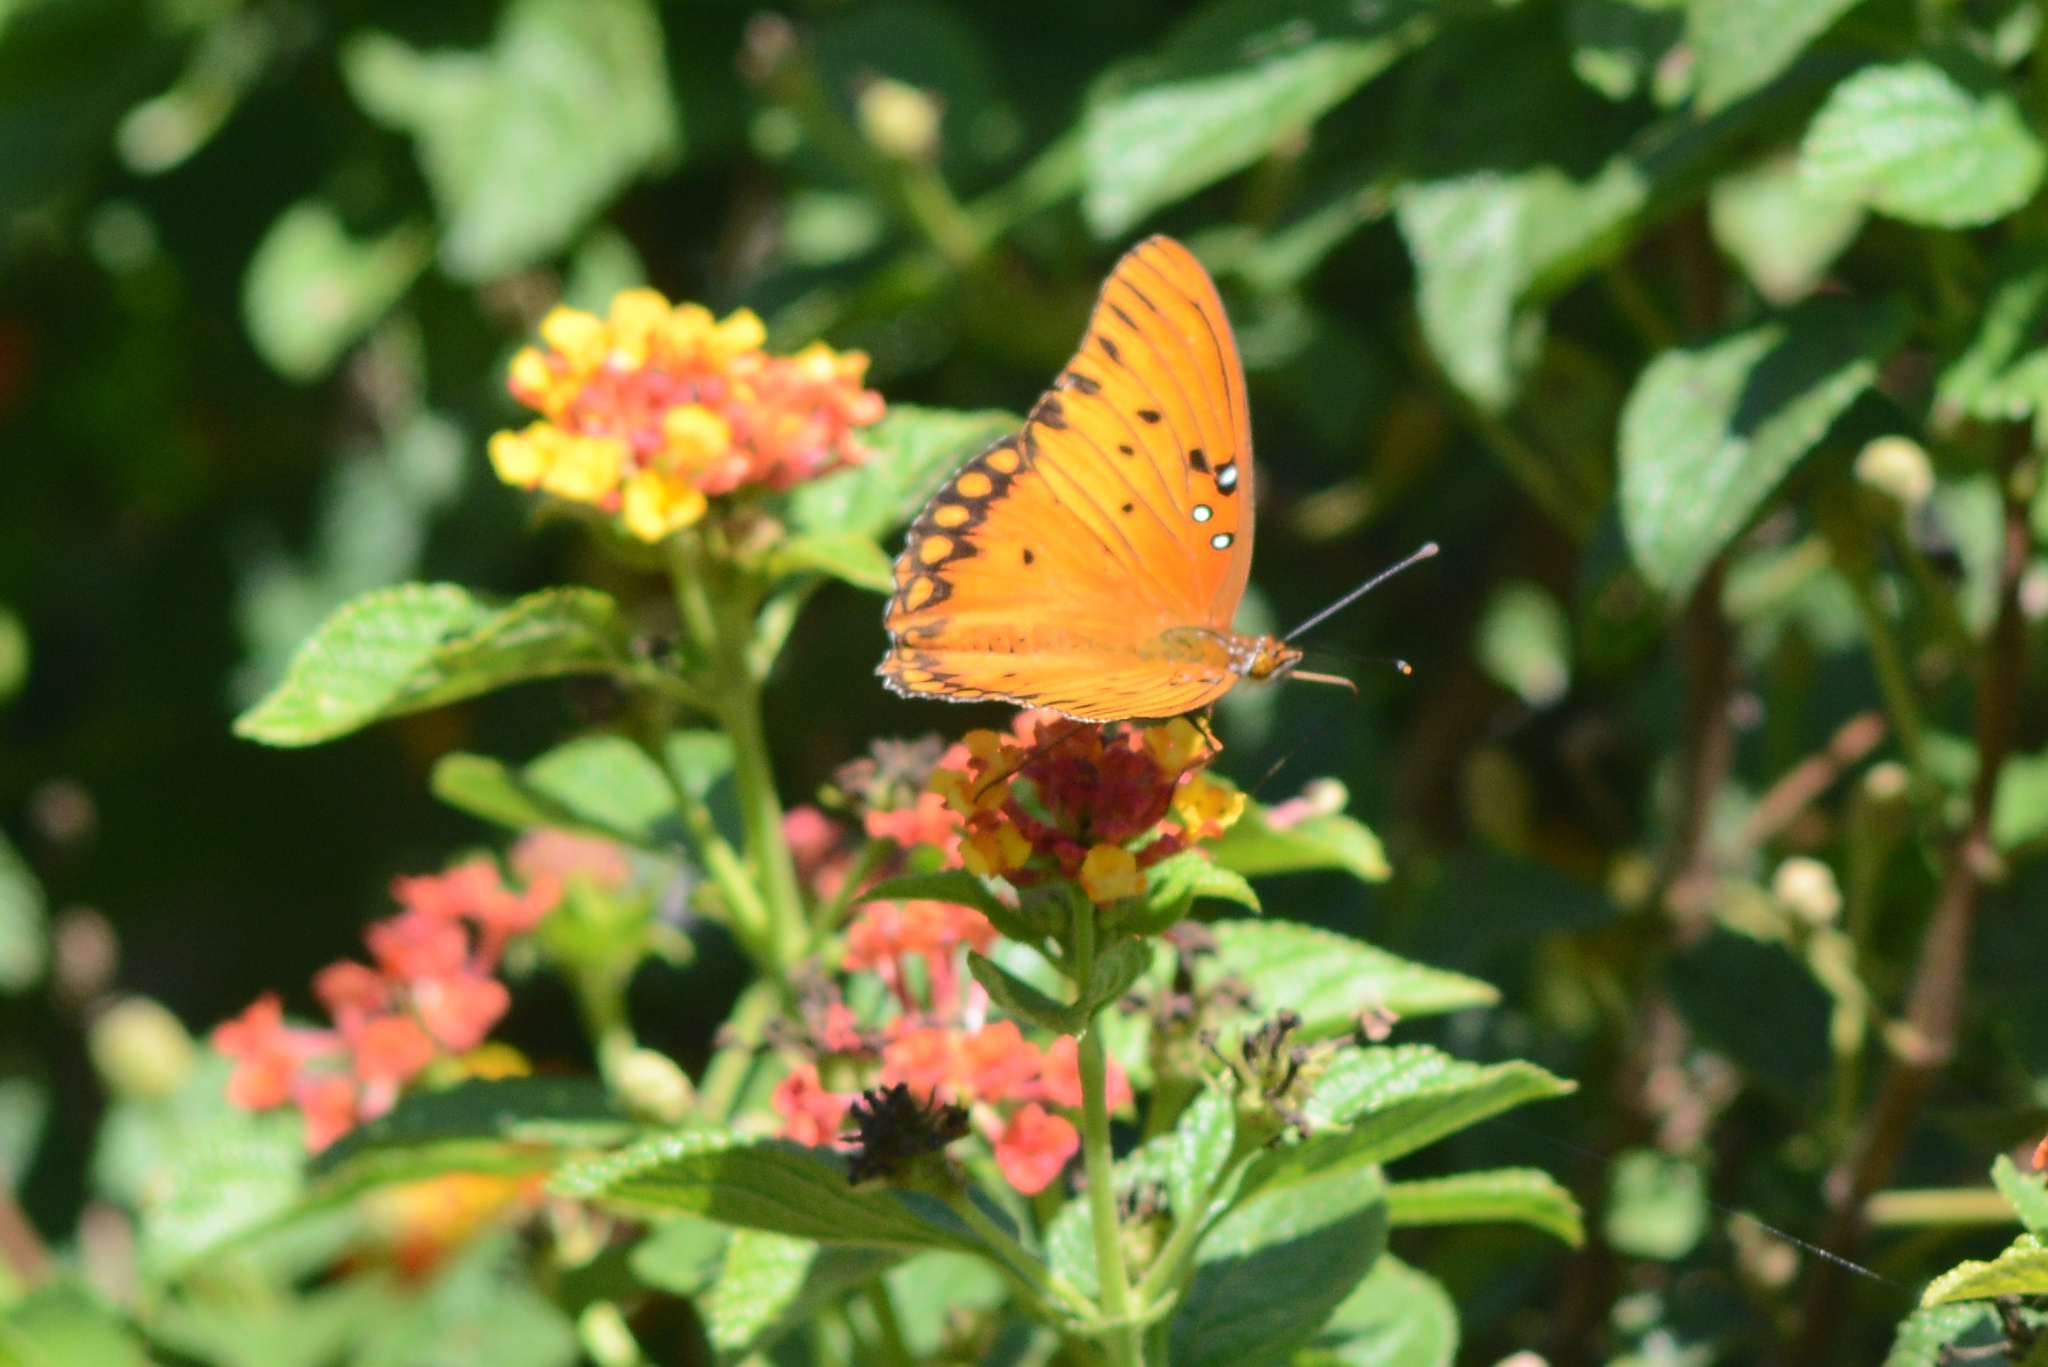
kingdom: Animalia
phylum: Arthropoda
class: Insecta
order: Lepidoptera
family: Nymphalidae
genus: Dione
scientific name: Dione vanillae
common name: Gulf fritillary
